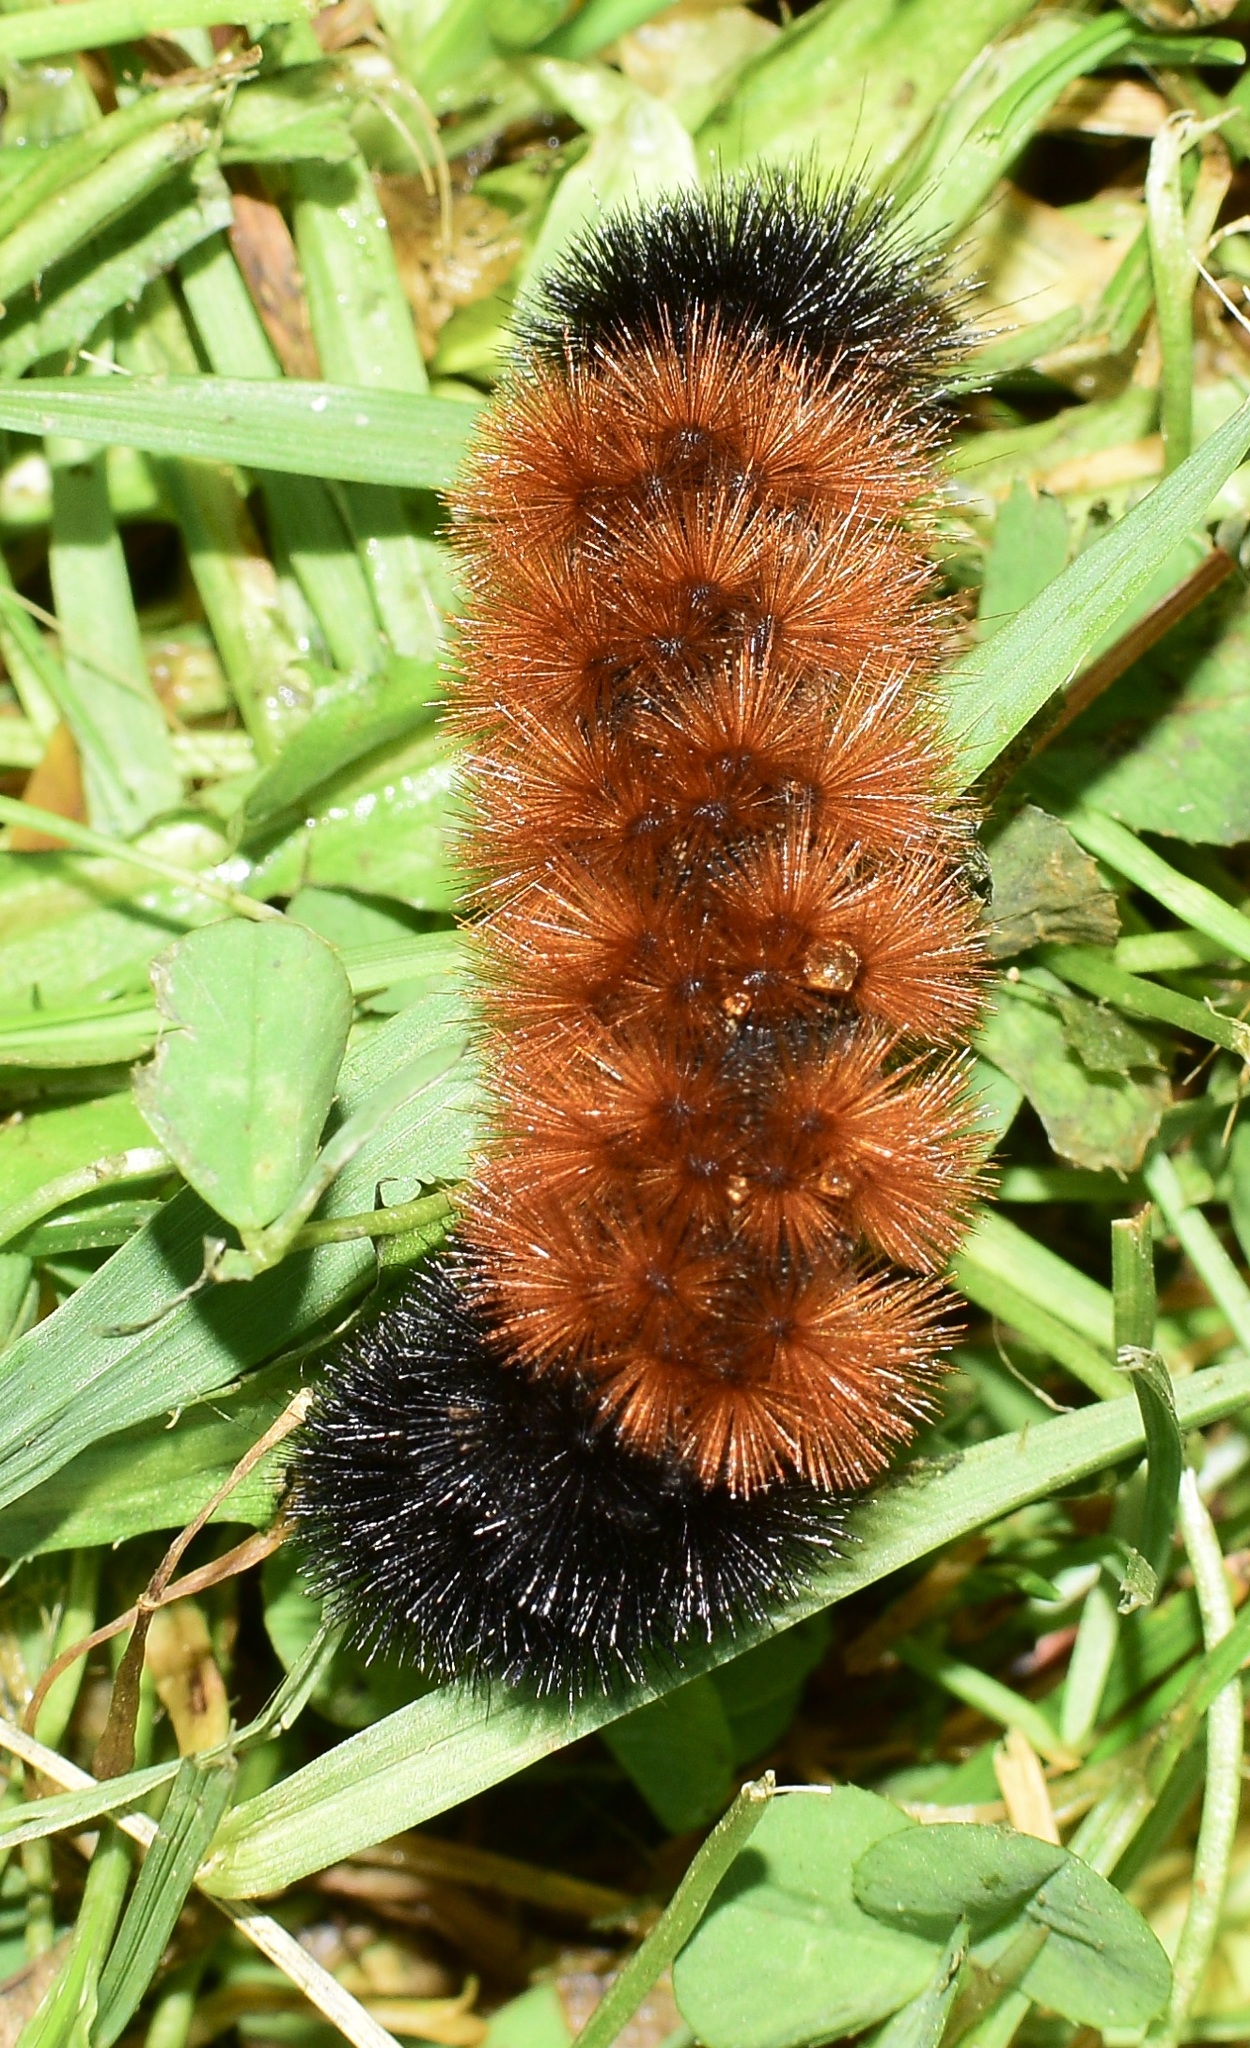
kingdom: Animalia
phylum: Arthropoda
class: Insecta
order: Lepidoptera
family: Erebidae
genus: Pyrrharctia
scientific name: Pyrrharctia isabella
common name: Isabella tiger moth
